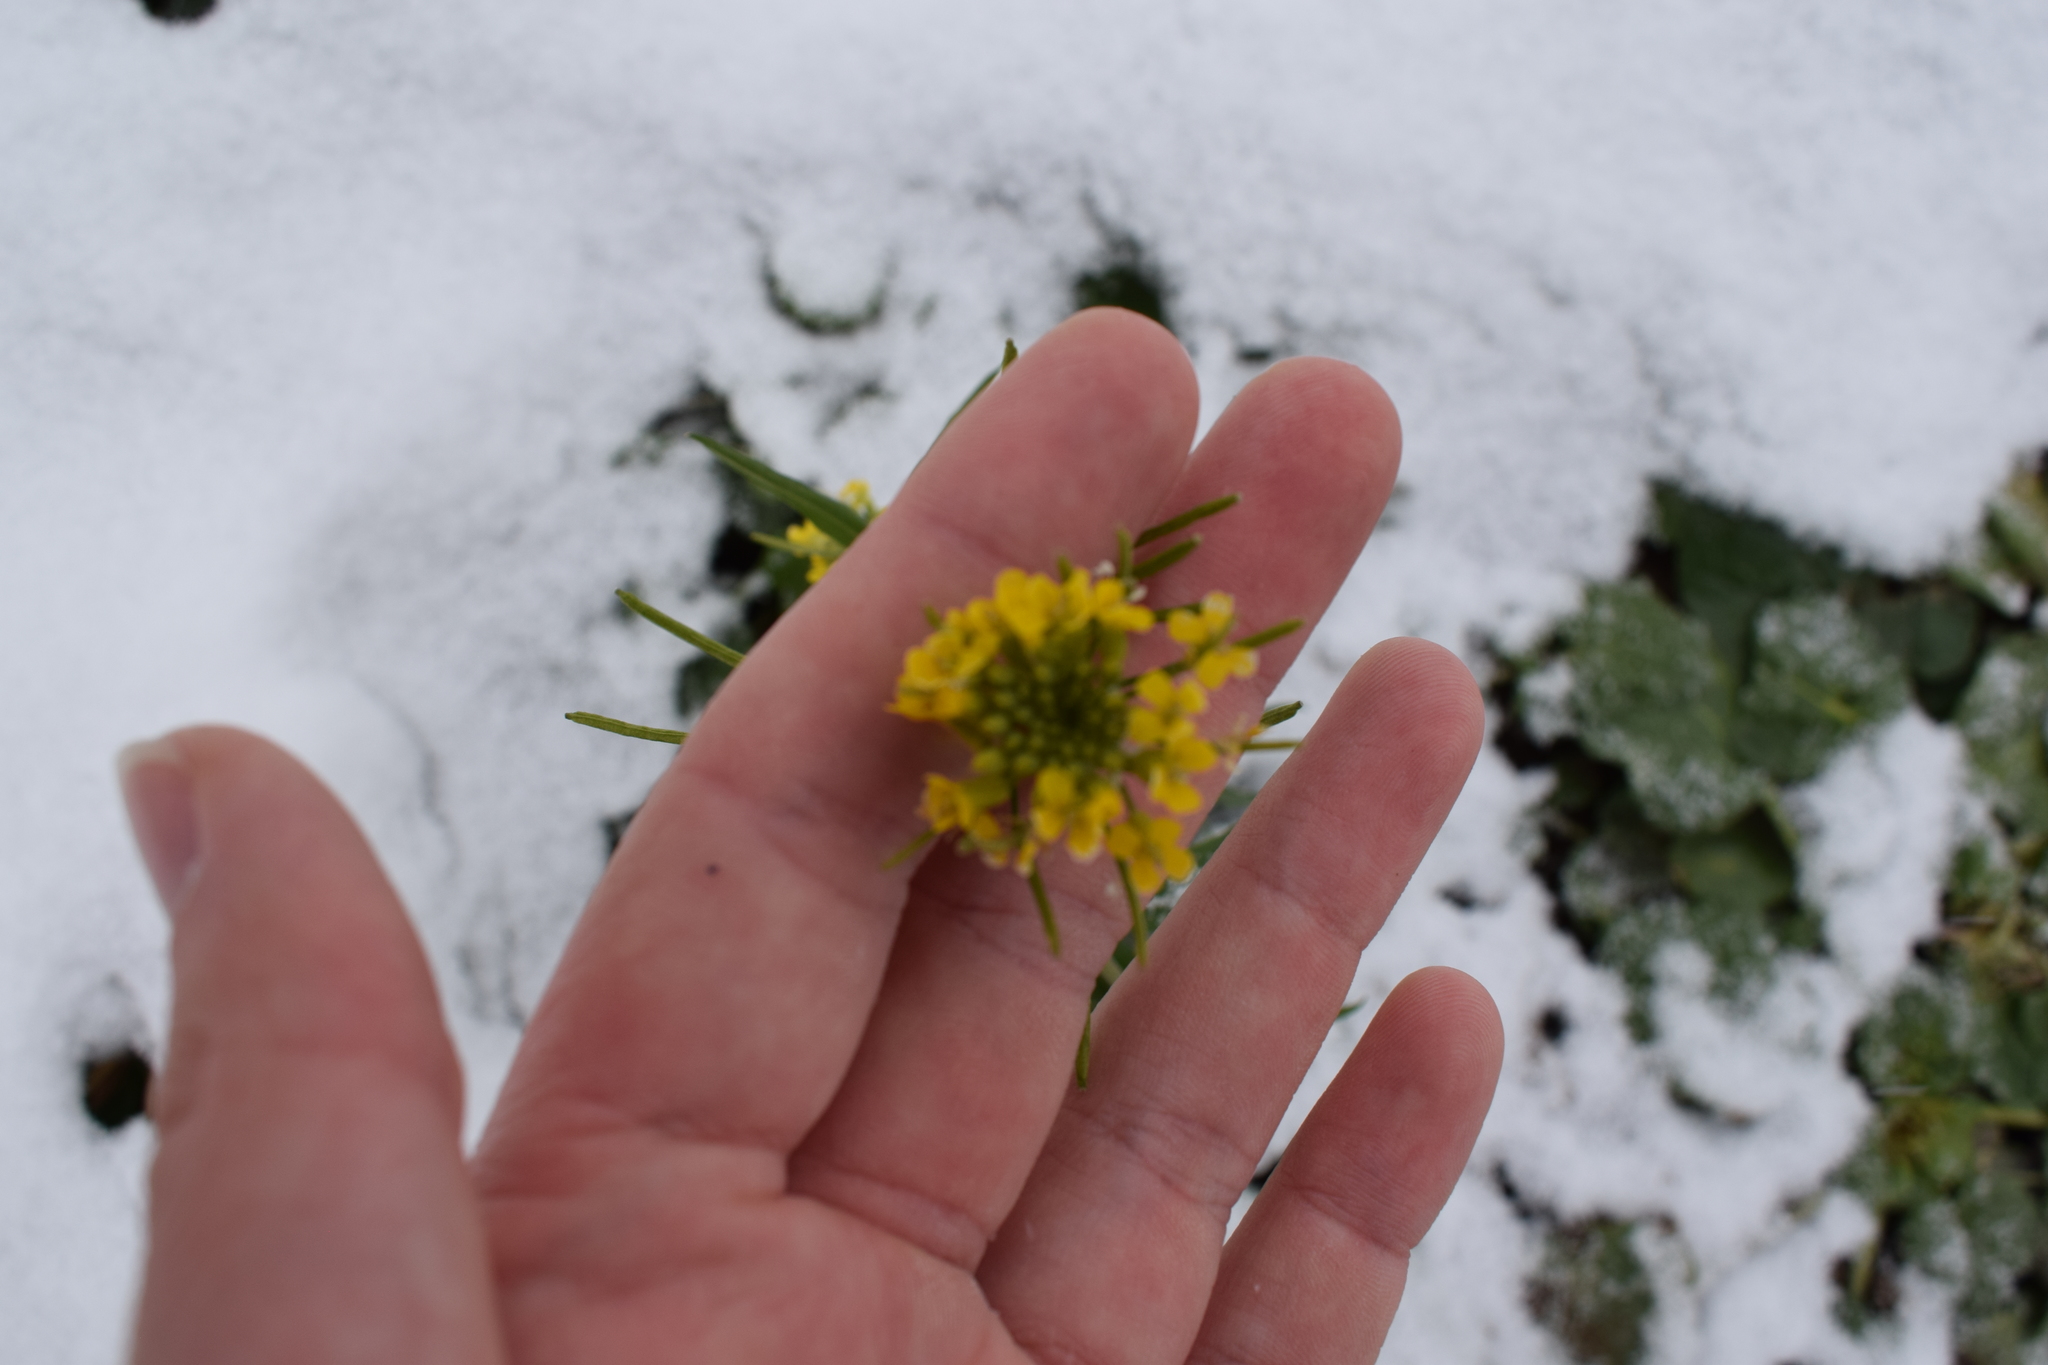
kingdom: Plantae
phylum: Tracheophyta
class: Magnoliopsida
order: Brassicales
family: Brassicaceae
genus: Erysimum
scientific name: Erysimum cheiranthoides
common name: Treacle mustard
